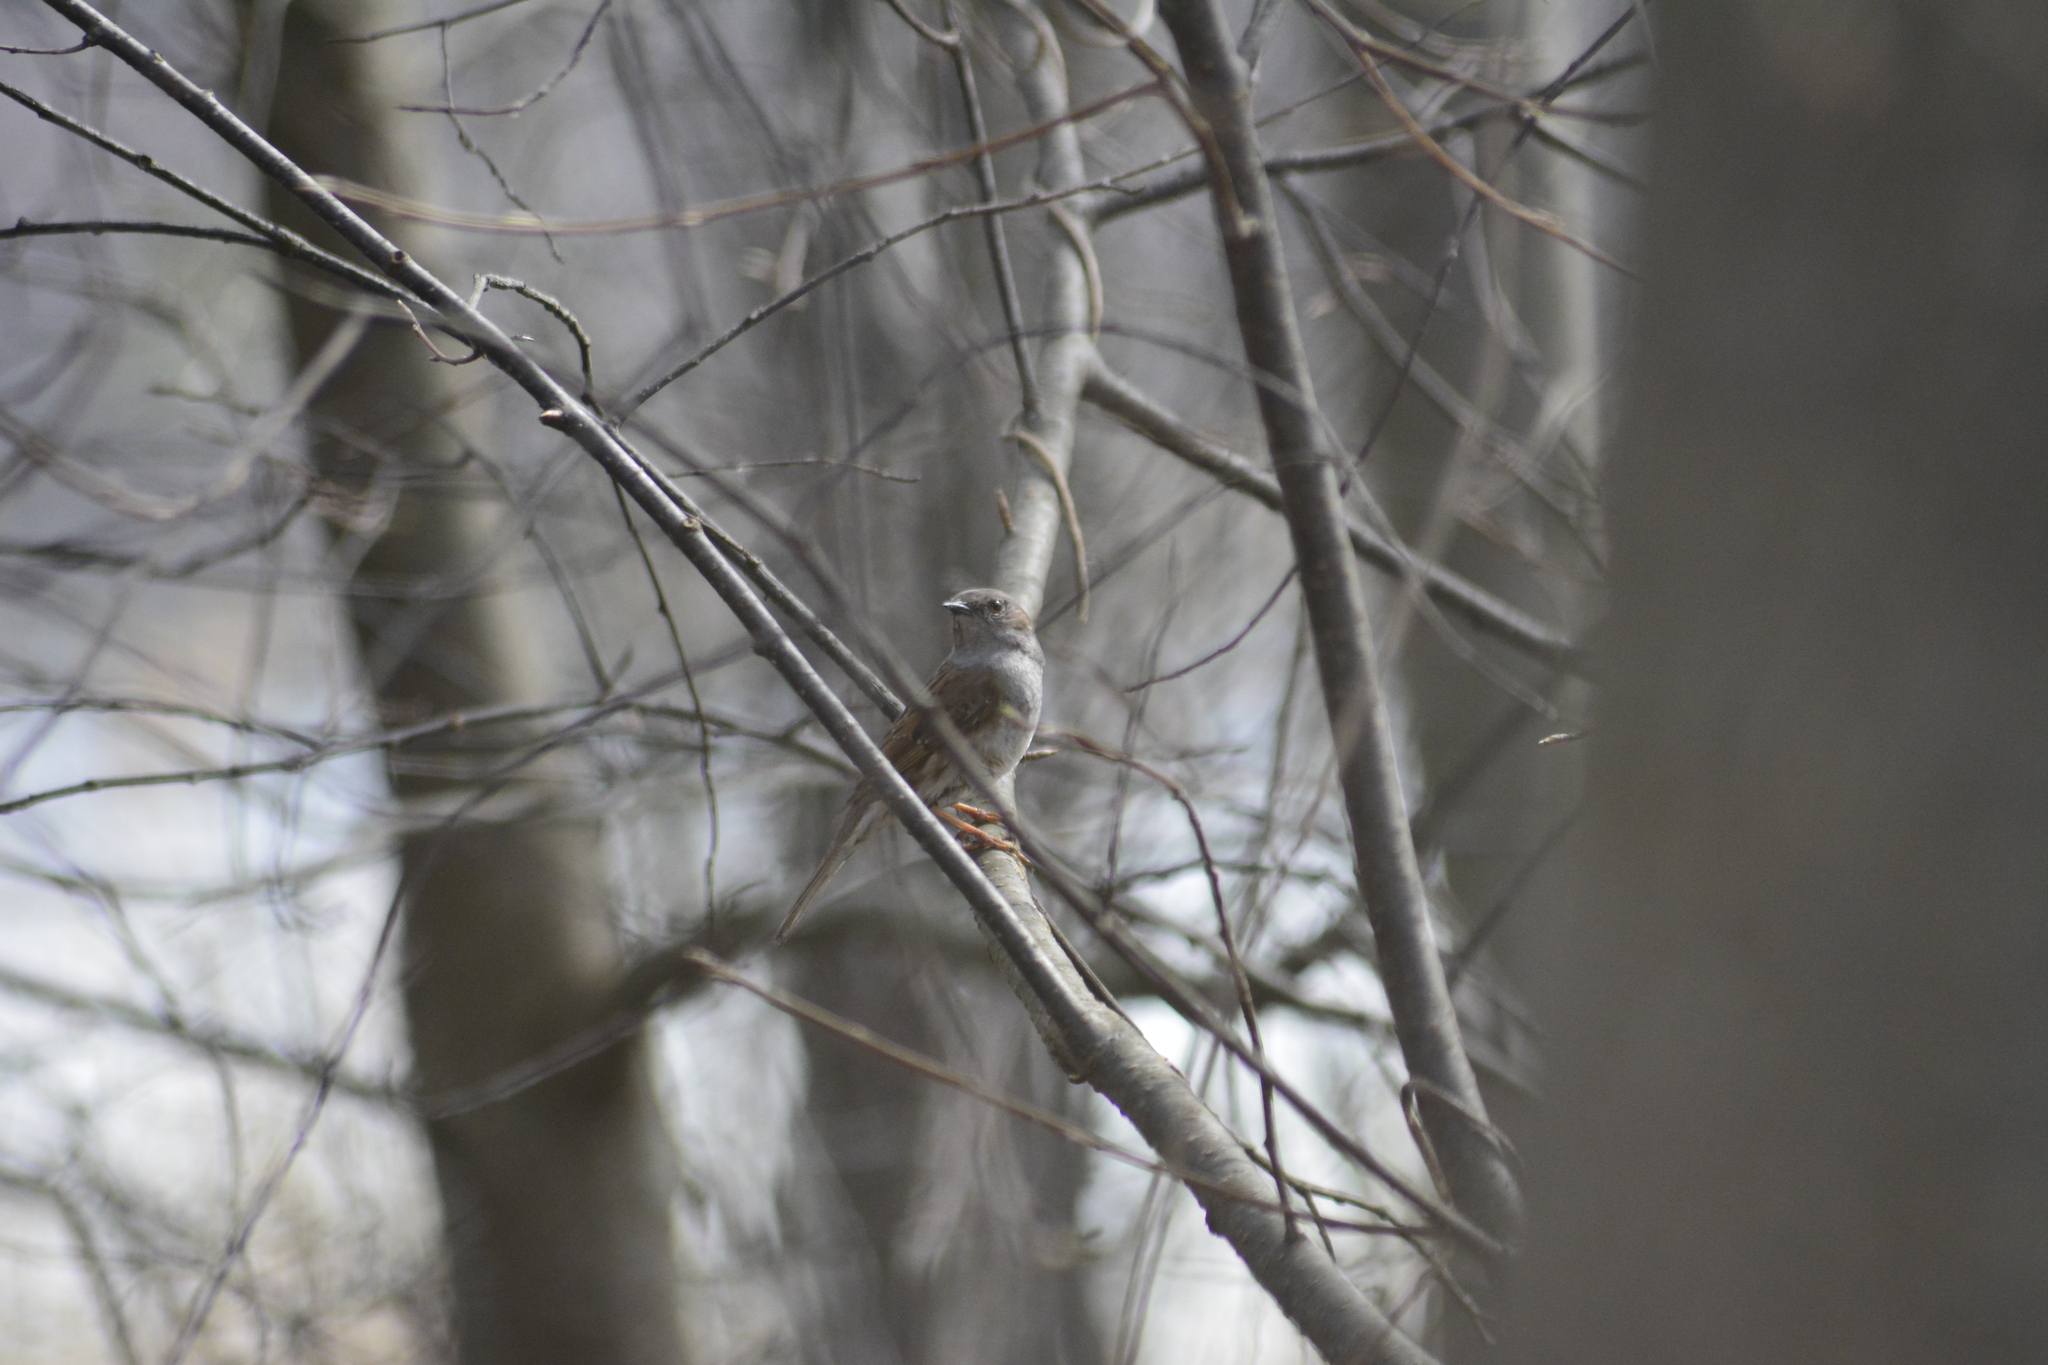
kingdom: Animalia
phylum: Chordata
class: Aves
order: Passeriformes
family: Prunellidae
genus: Prunella
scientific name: Prunella modularis
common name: Dunnock
